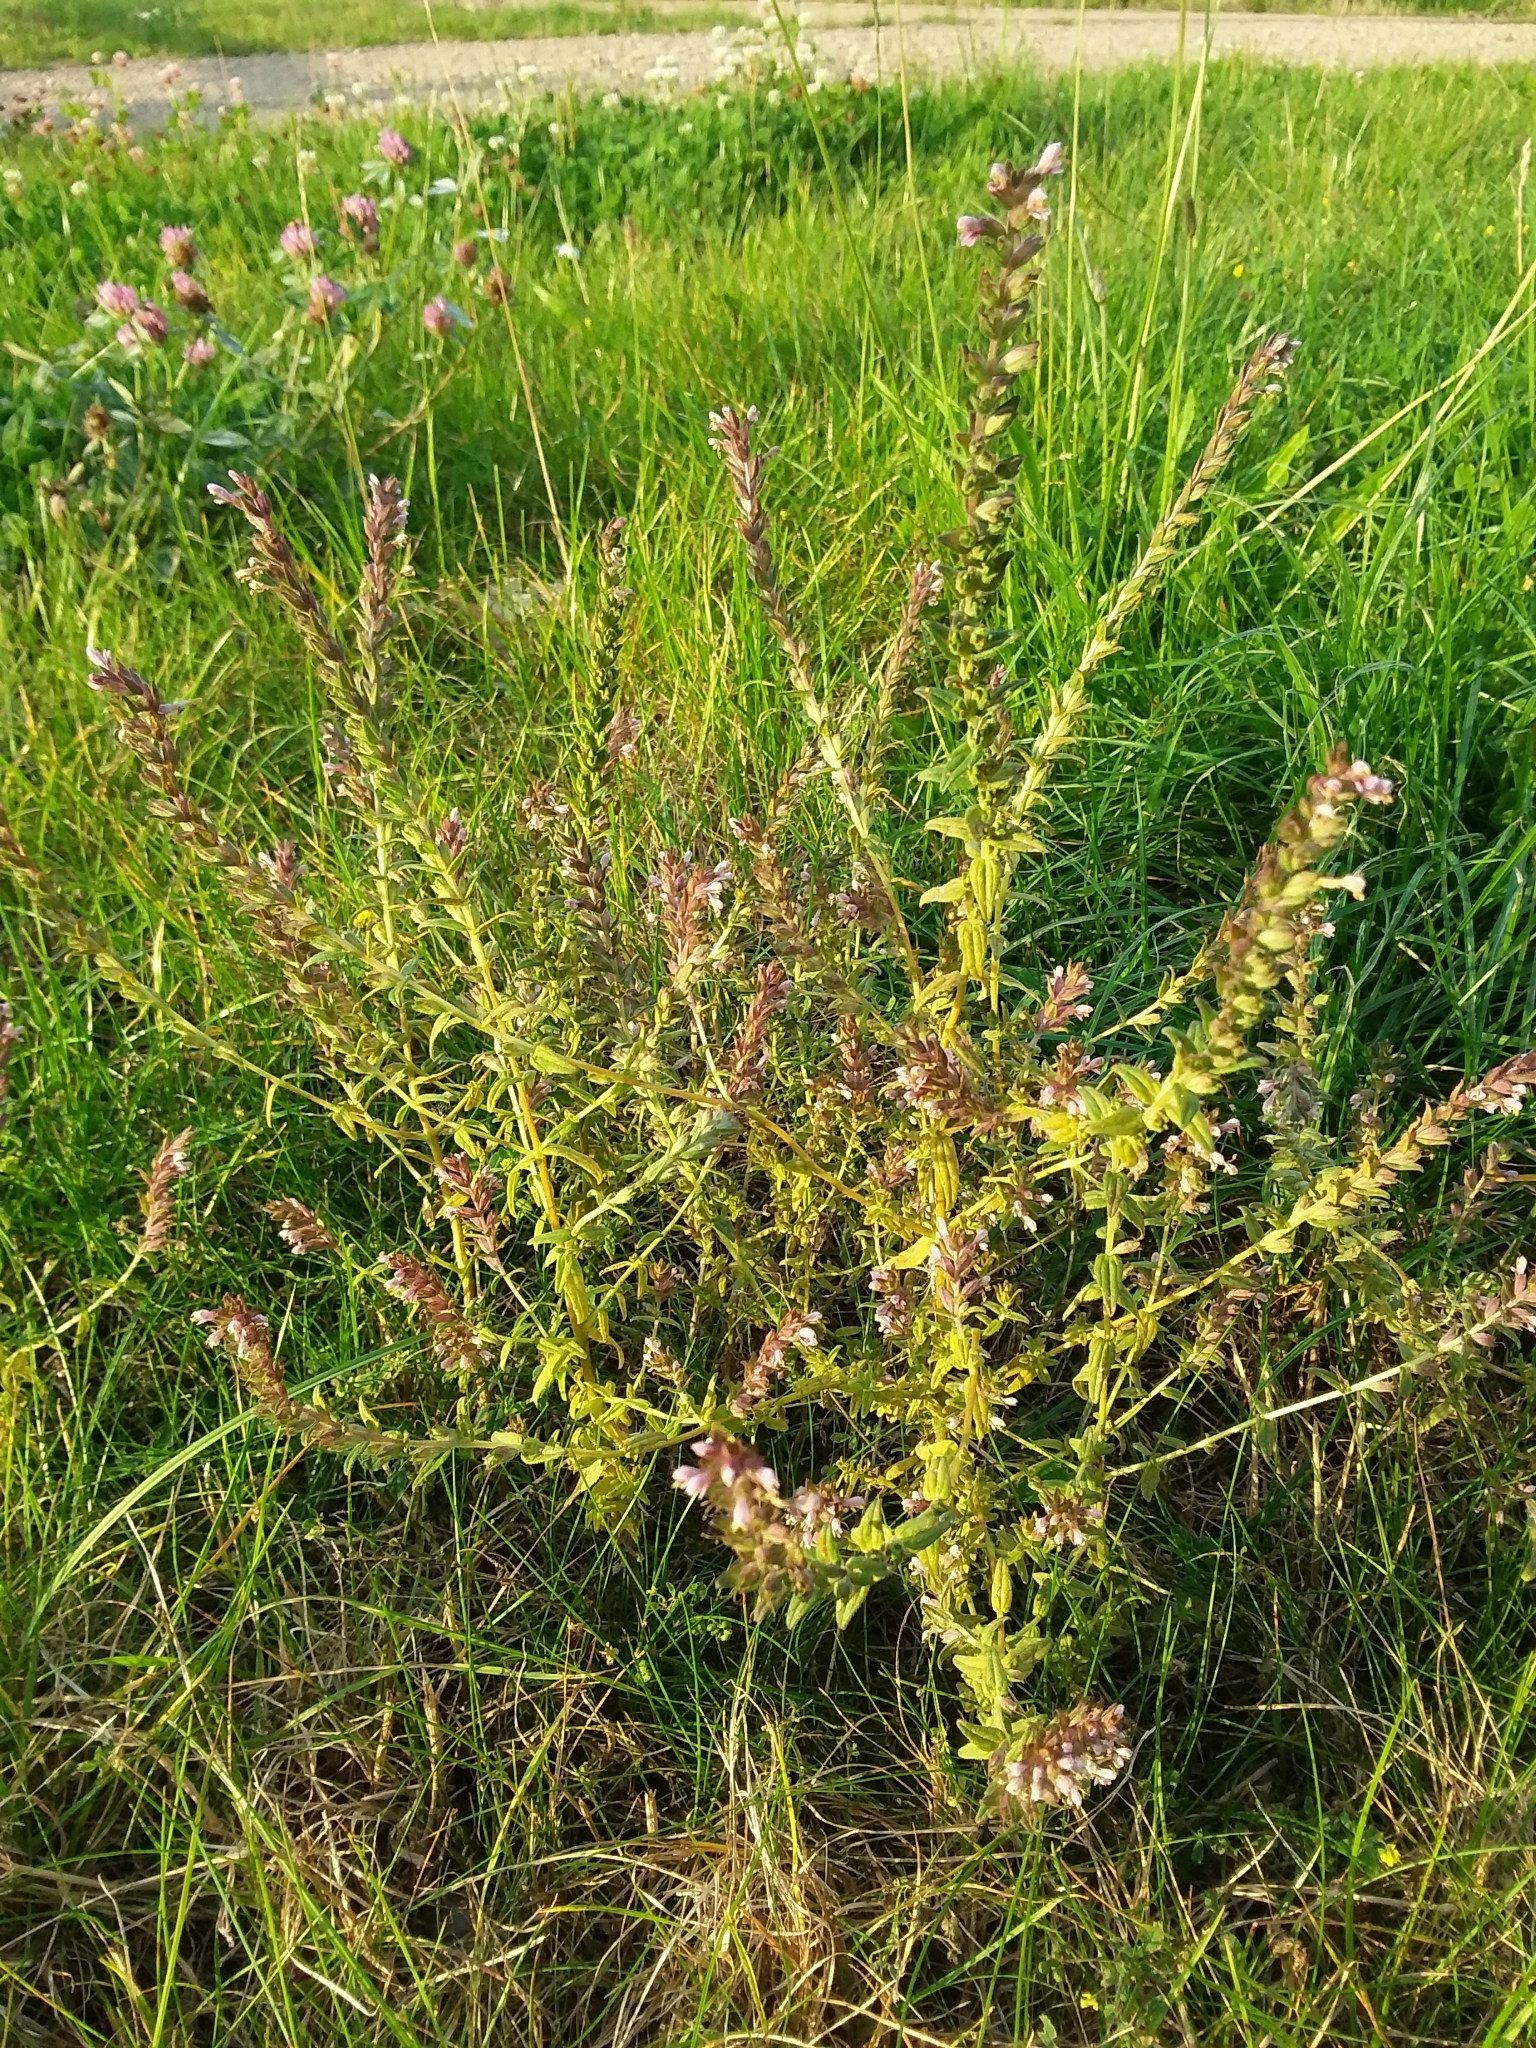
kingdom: Plantae
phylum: Tracheophyta
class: Magnoliopsida
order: Lamiales
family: Orobanchaceae
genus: Odontites
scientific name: Odontites vulgaris
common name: Broomrape
